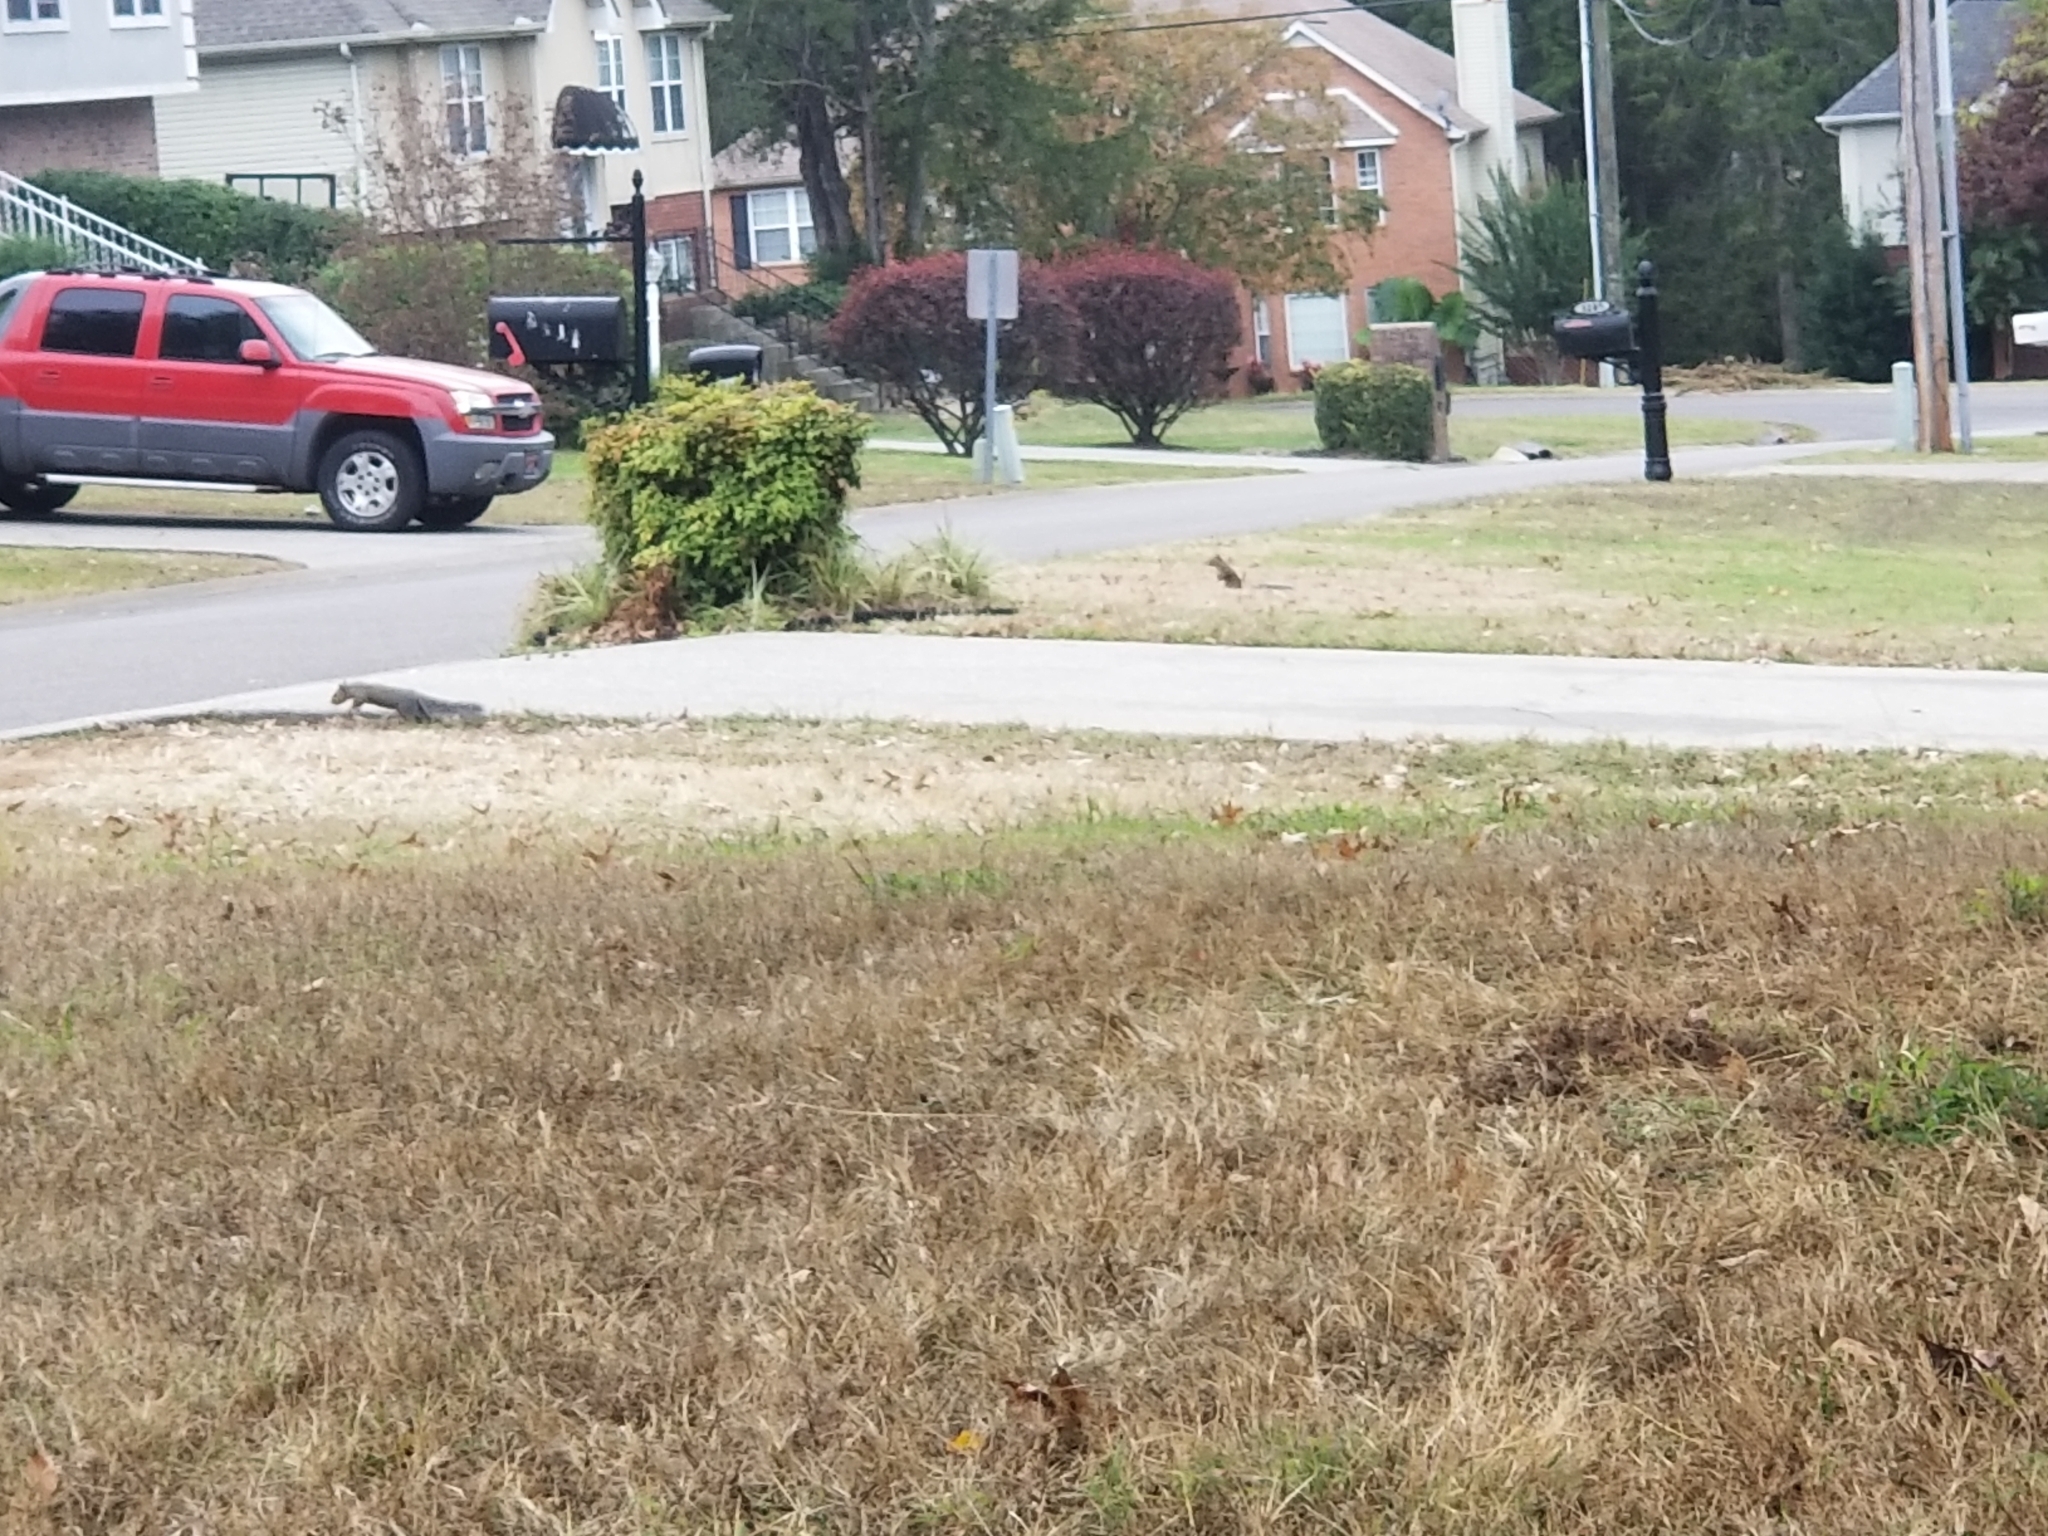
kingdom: Animalia
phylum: Chordata
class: Mammalia
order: Rodentia
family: Sciuridae
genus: Sciurus
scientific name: Sciurus carolinensis
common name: Eastern gray squirrel
